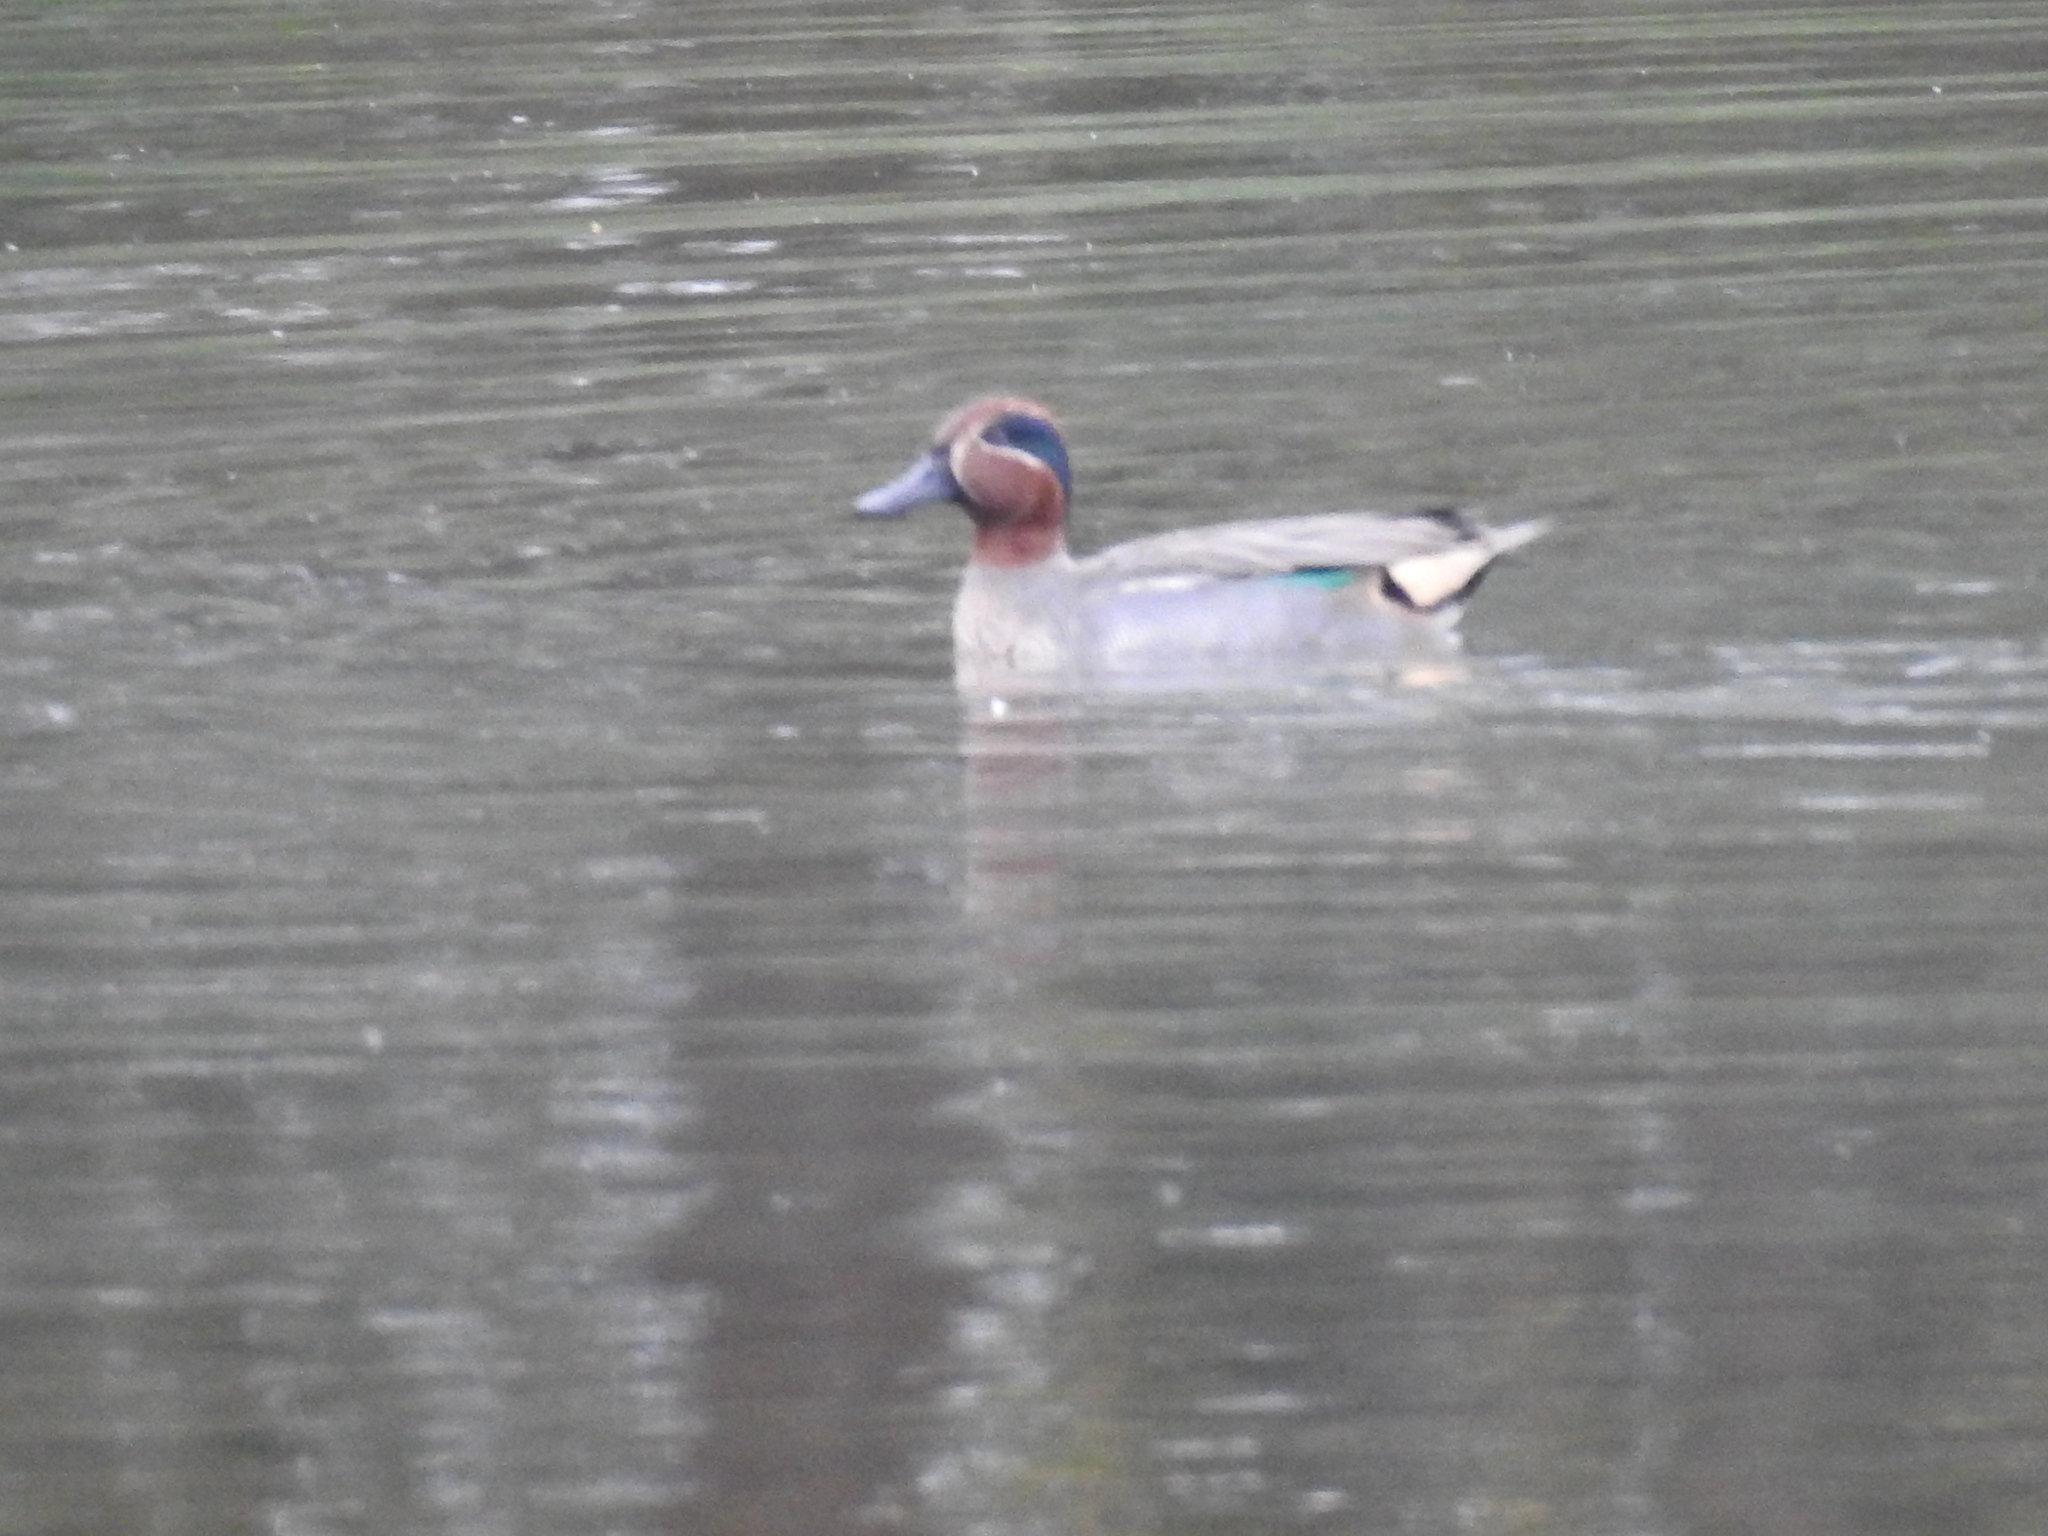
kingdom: Animalia
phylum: Chordata
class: Aves
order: Anseriformes
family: Anatidae
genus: Anas
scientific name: Anas crecca
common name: Eurasian teal
